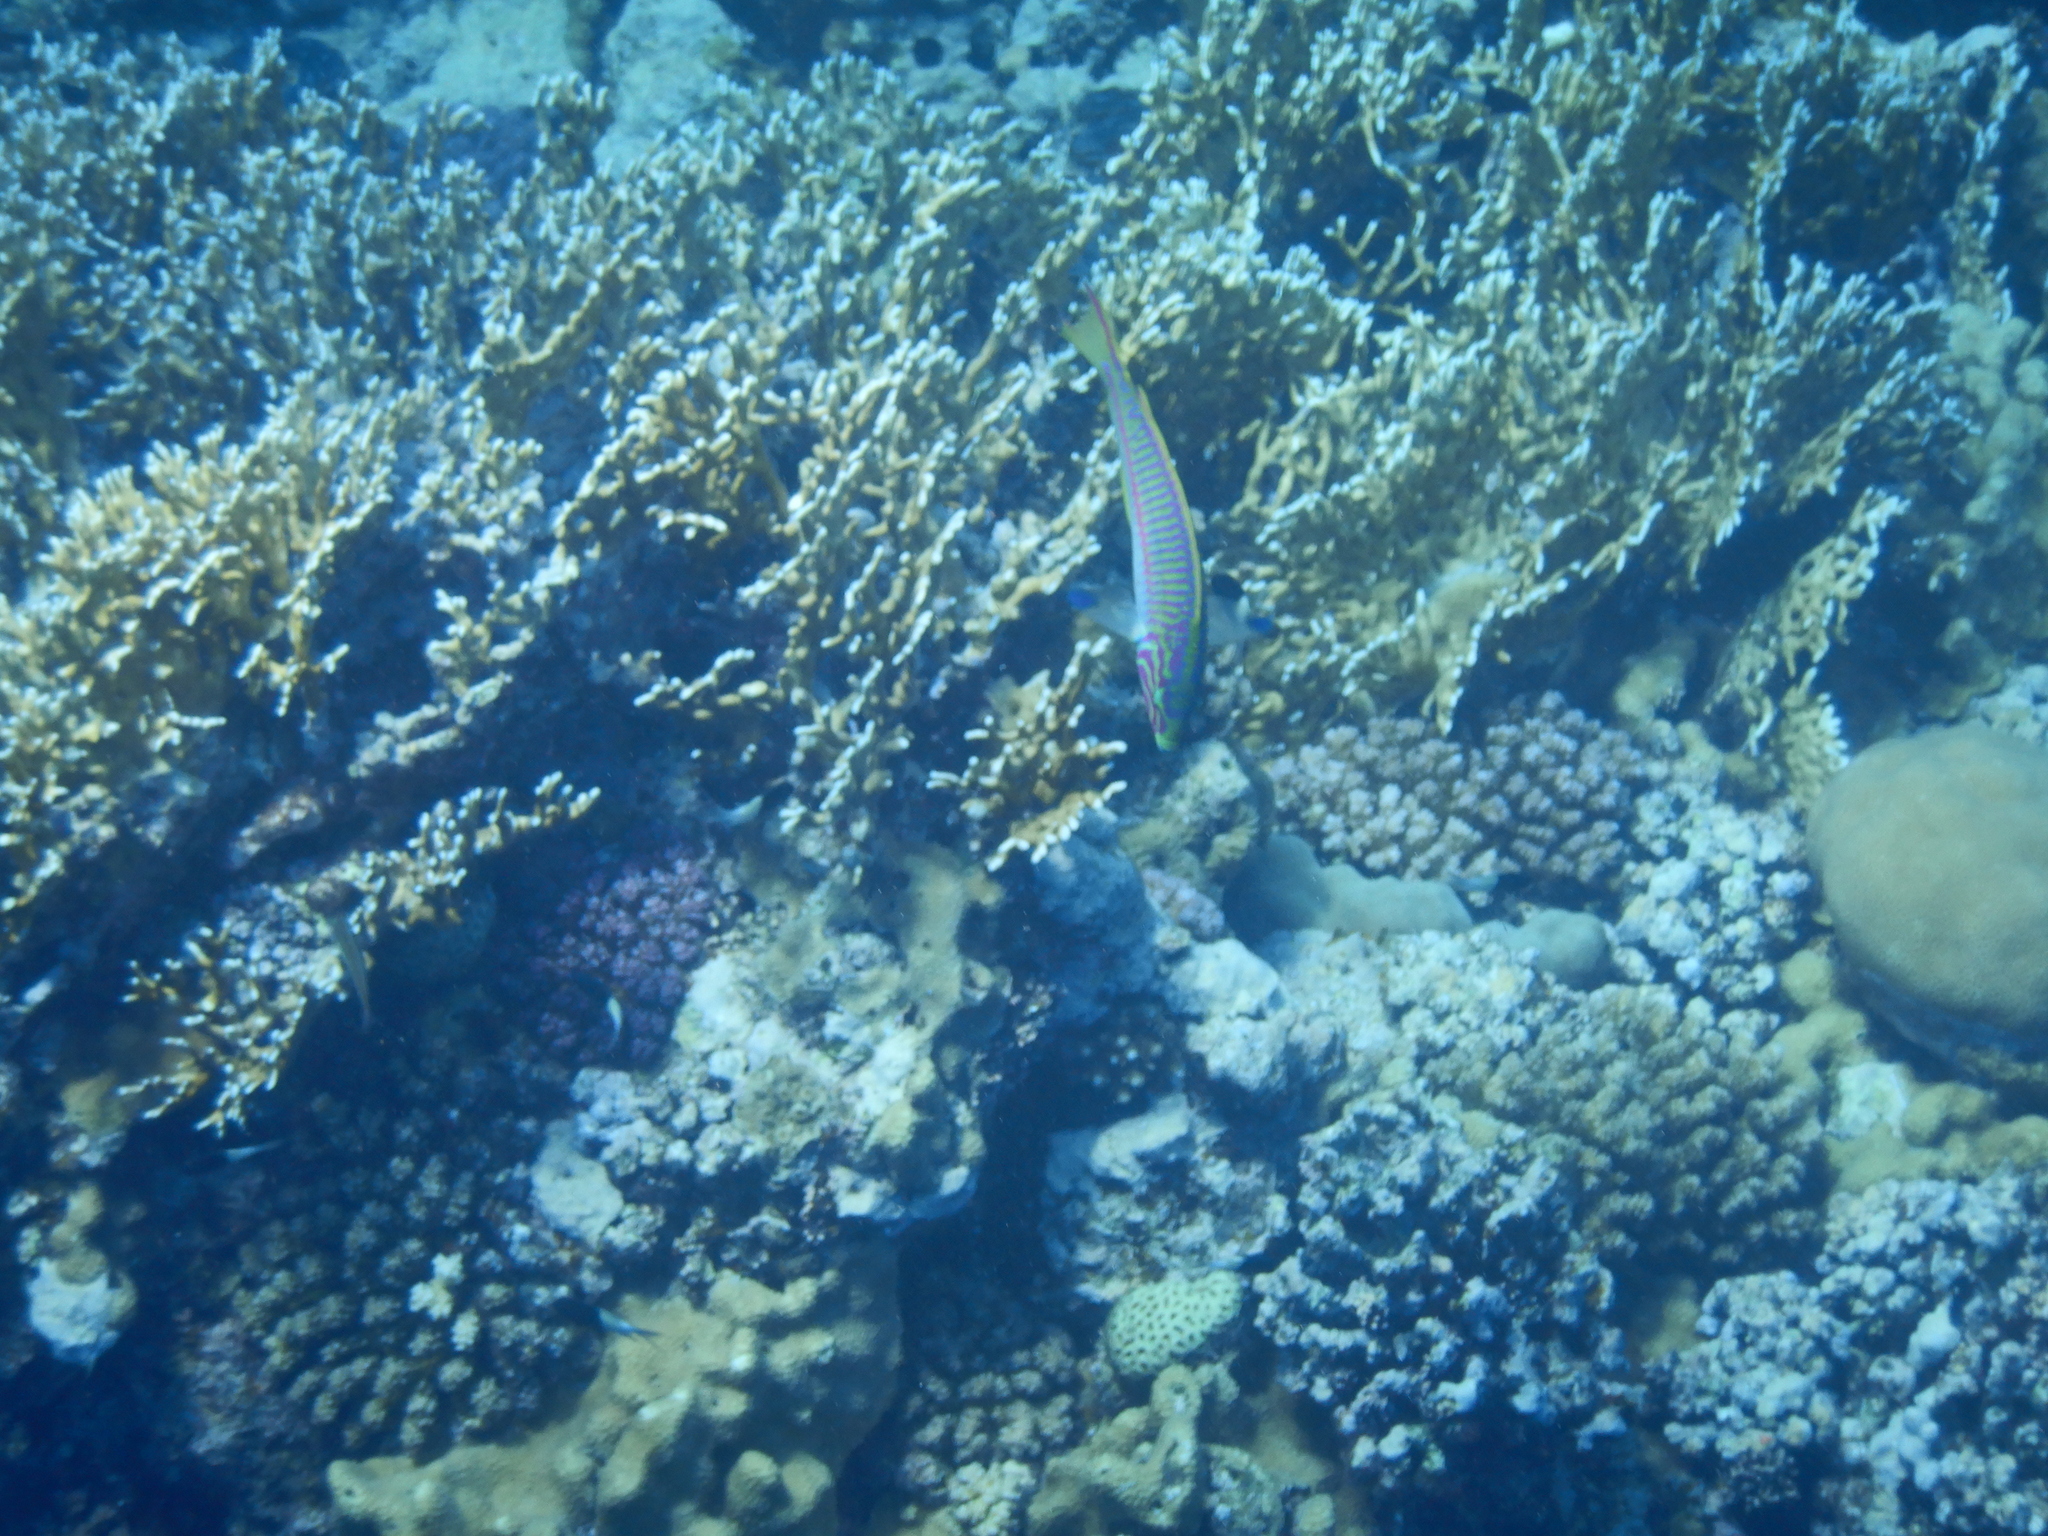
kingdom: Animalia
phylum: Chordata
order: Perciformes
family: Labridae
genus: Thalassoma
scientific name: Thalassoma rueppellii
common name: Klunzinger's wrasse
